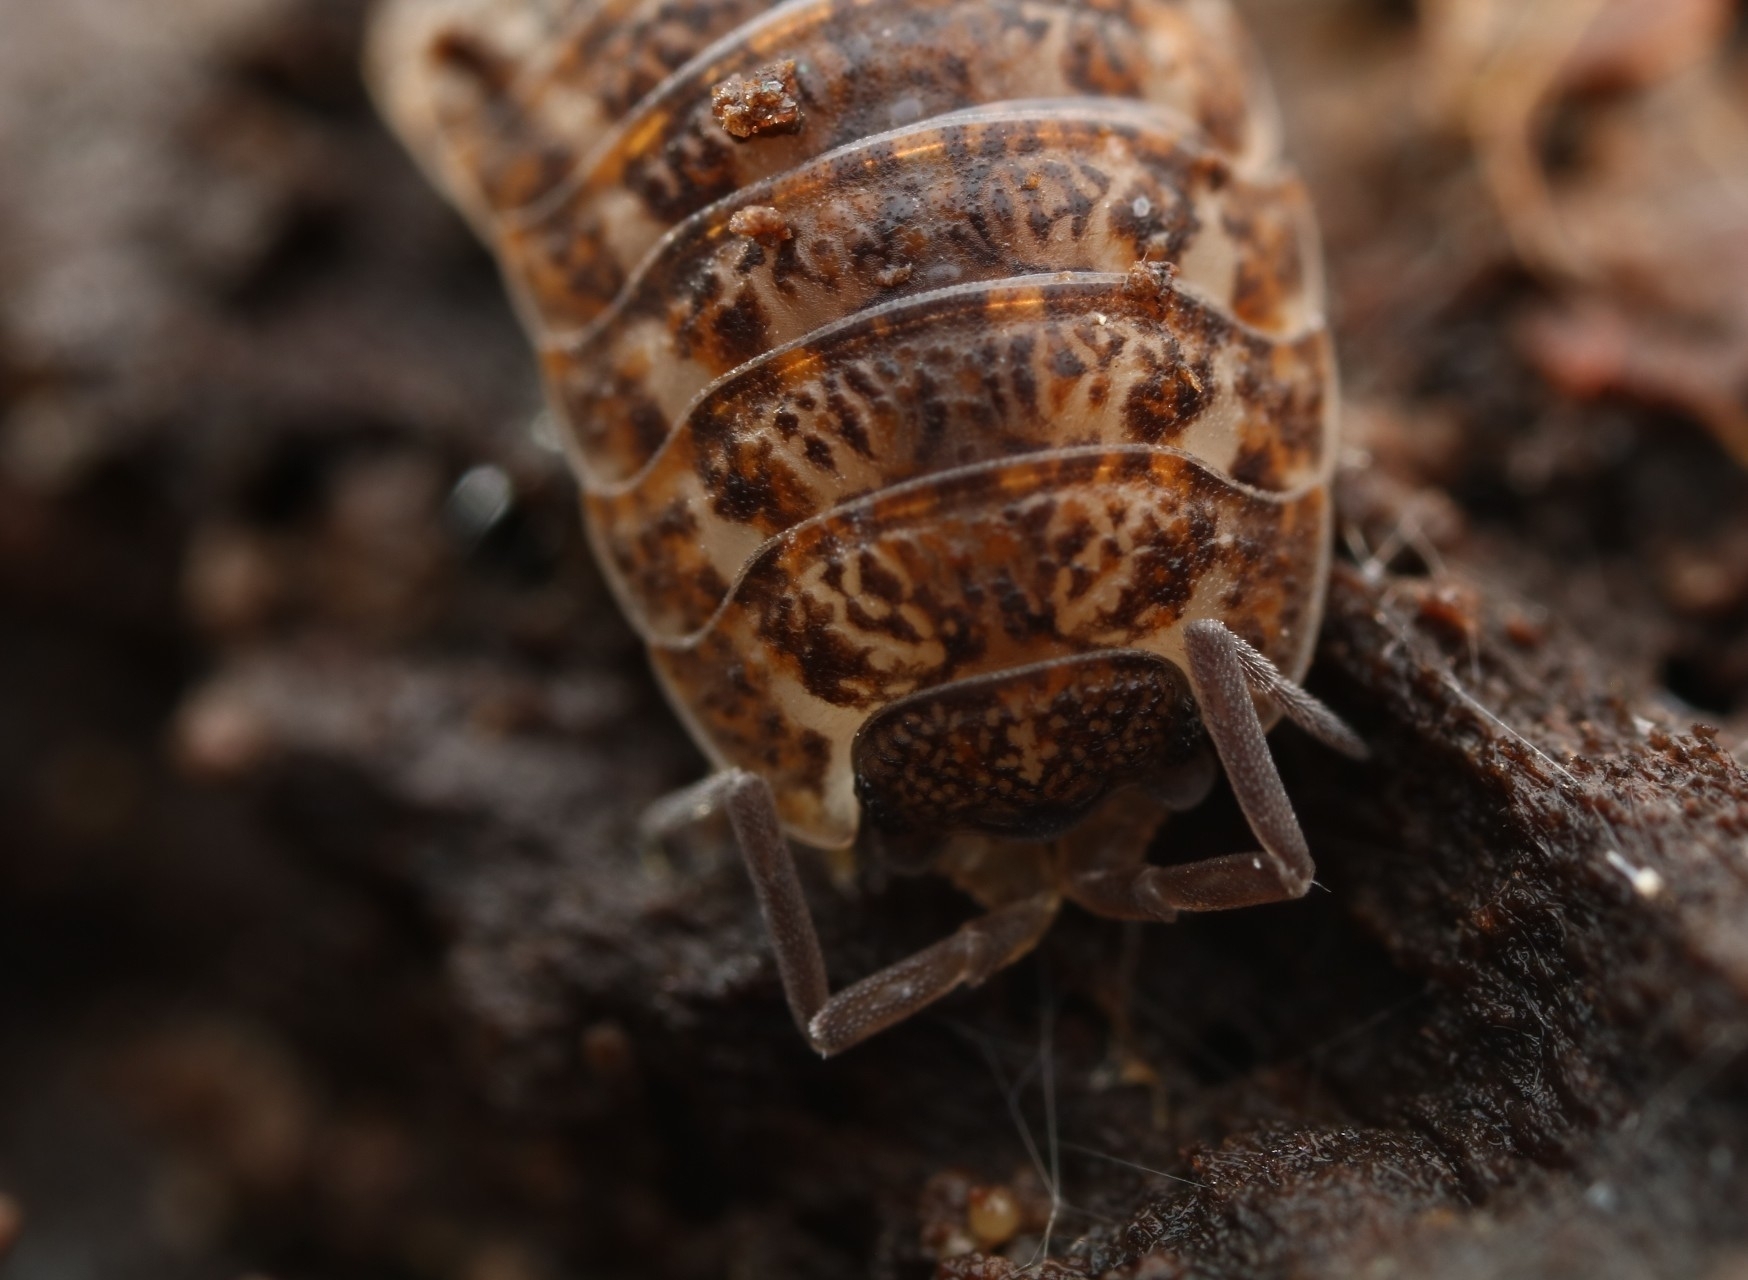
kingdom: Animalia
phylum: Arthropoda
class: Malacostraca
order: Isopoda
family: Trachelipodidae
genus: Trachelipus
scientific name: Trachelipus rathkii
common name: Isopod
